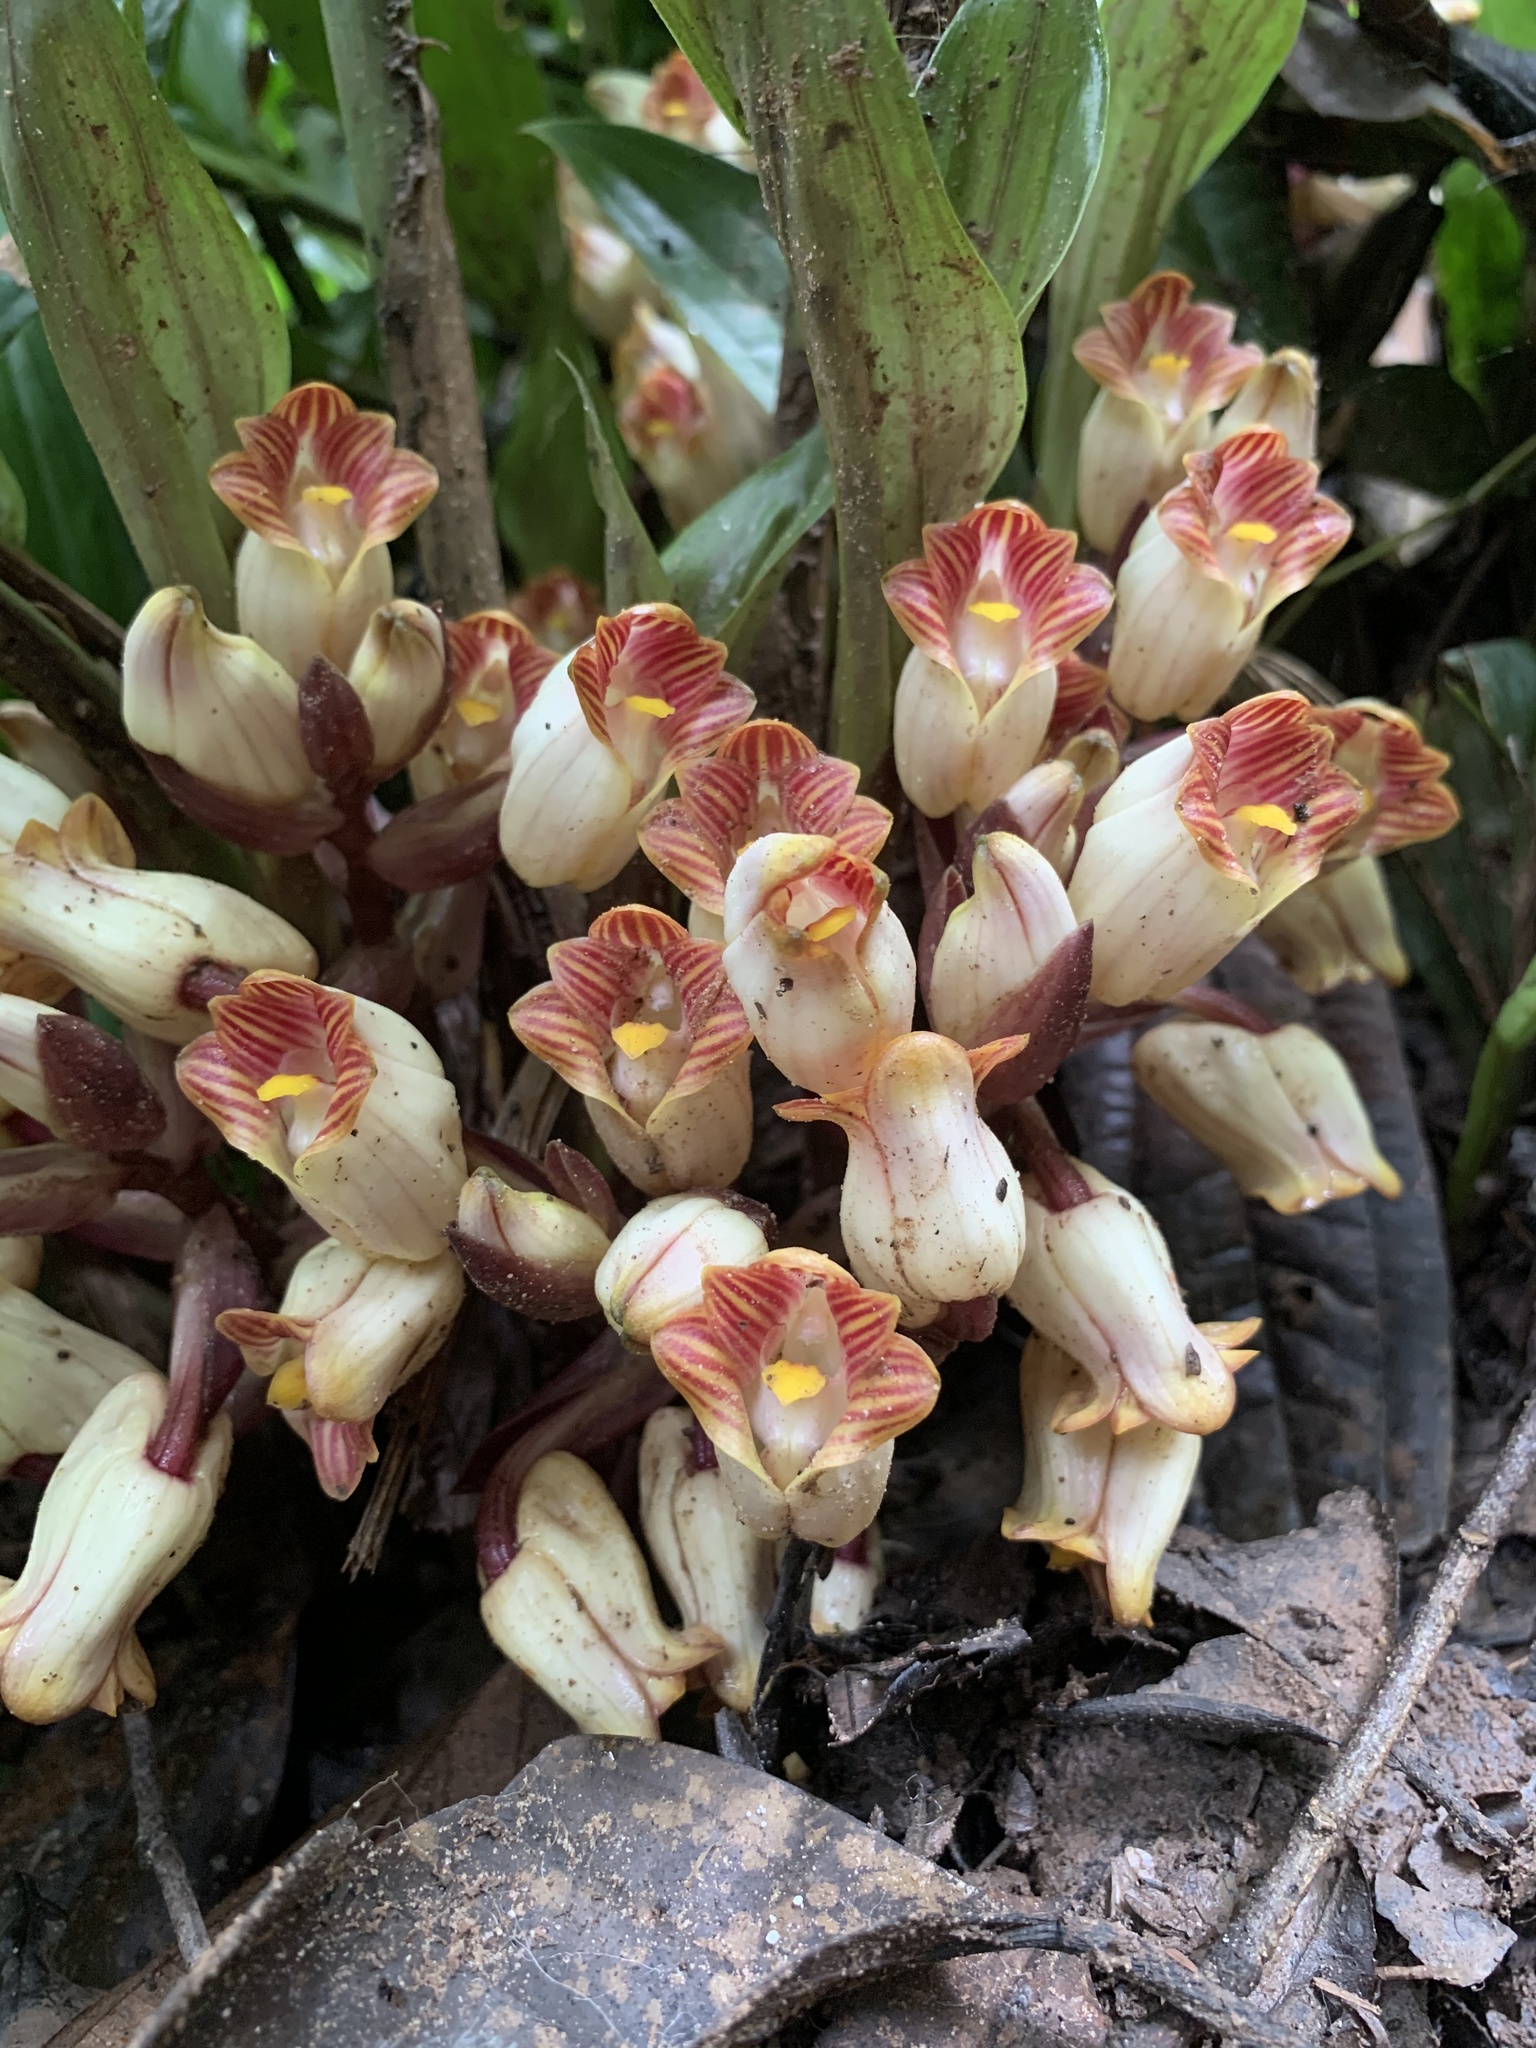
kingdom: Plantae
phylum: Tracheophyta
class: Liliopsida
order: Asparagales
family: Orchidaceae
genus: Acanthophippium
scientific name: Acanthophippium gougahense
